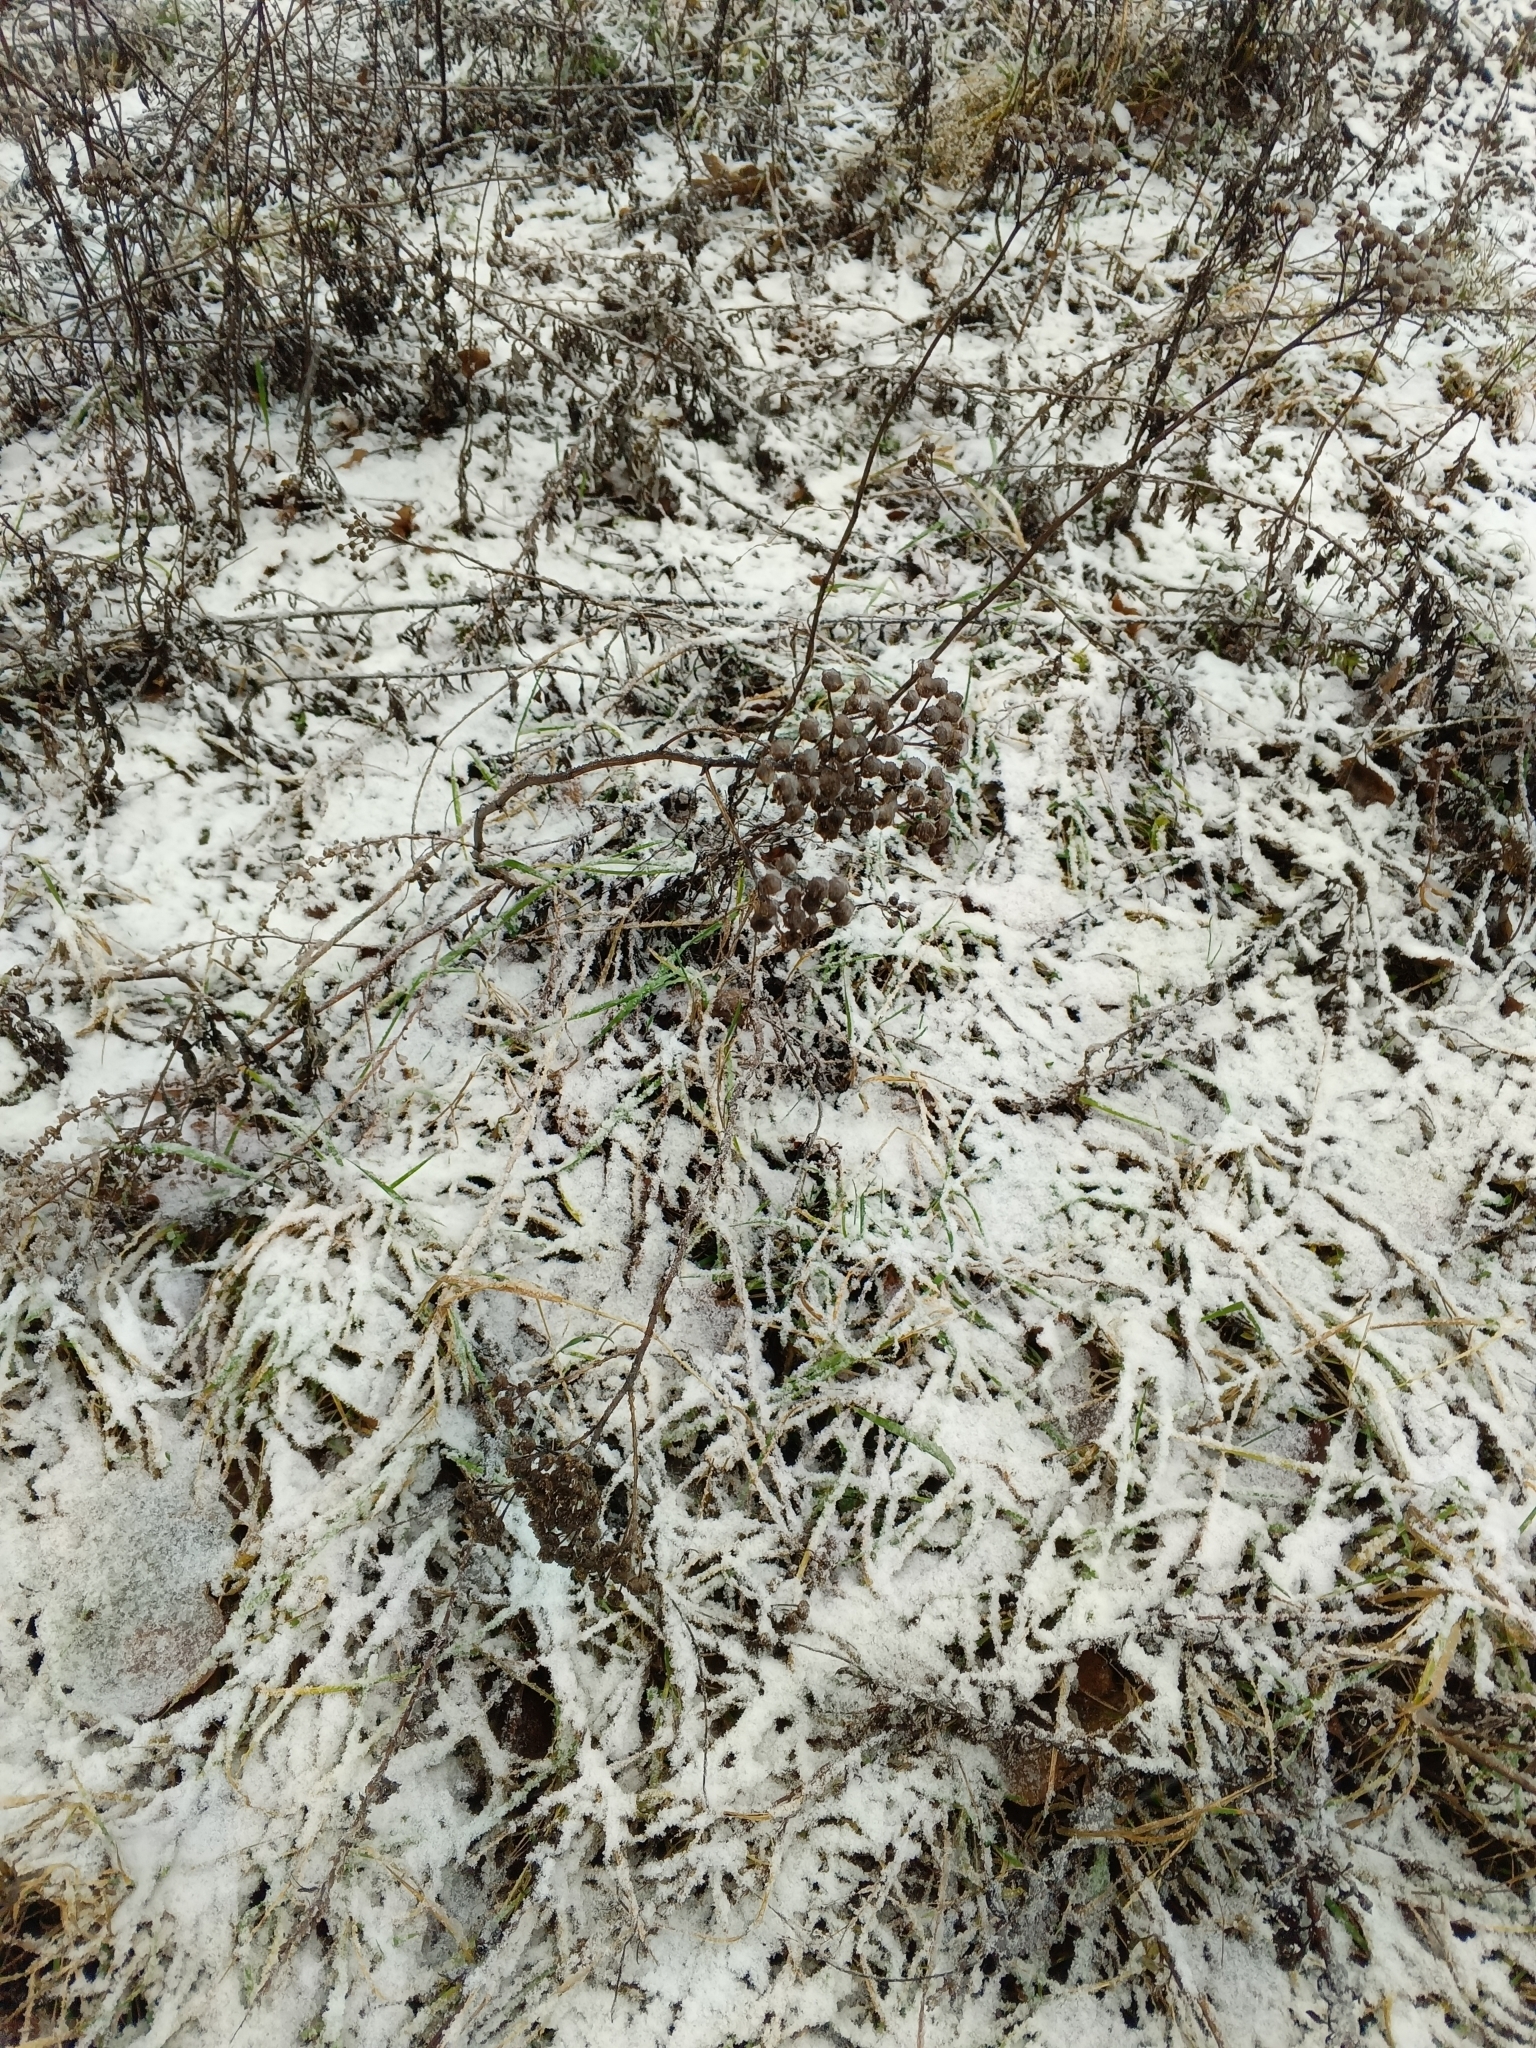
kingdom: Plantae
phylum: Tracheophyta
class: Magnoliopsida
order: Asterales
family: Asteraceae
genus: Tanacetum
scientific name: Tanacetum vulgare
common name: Common tansy
